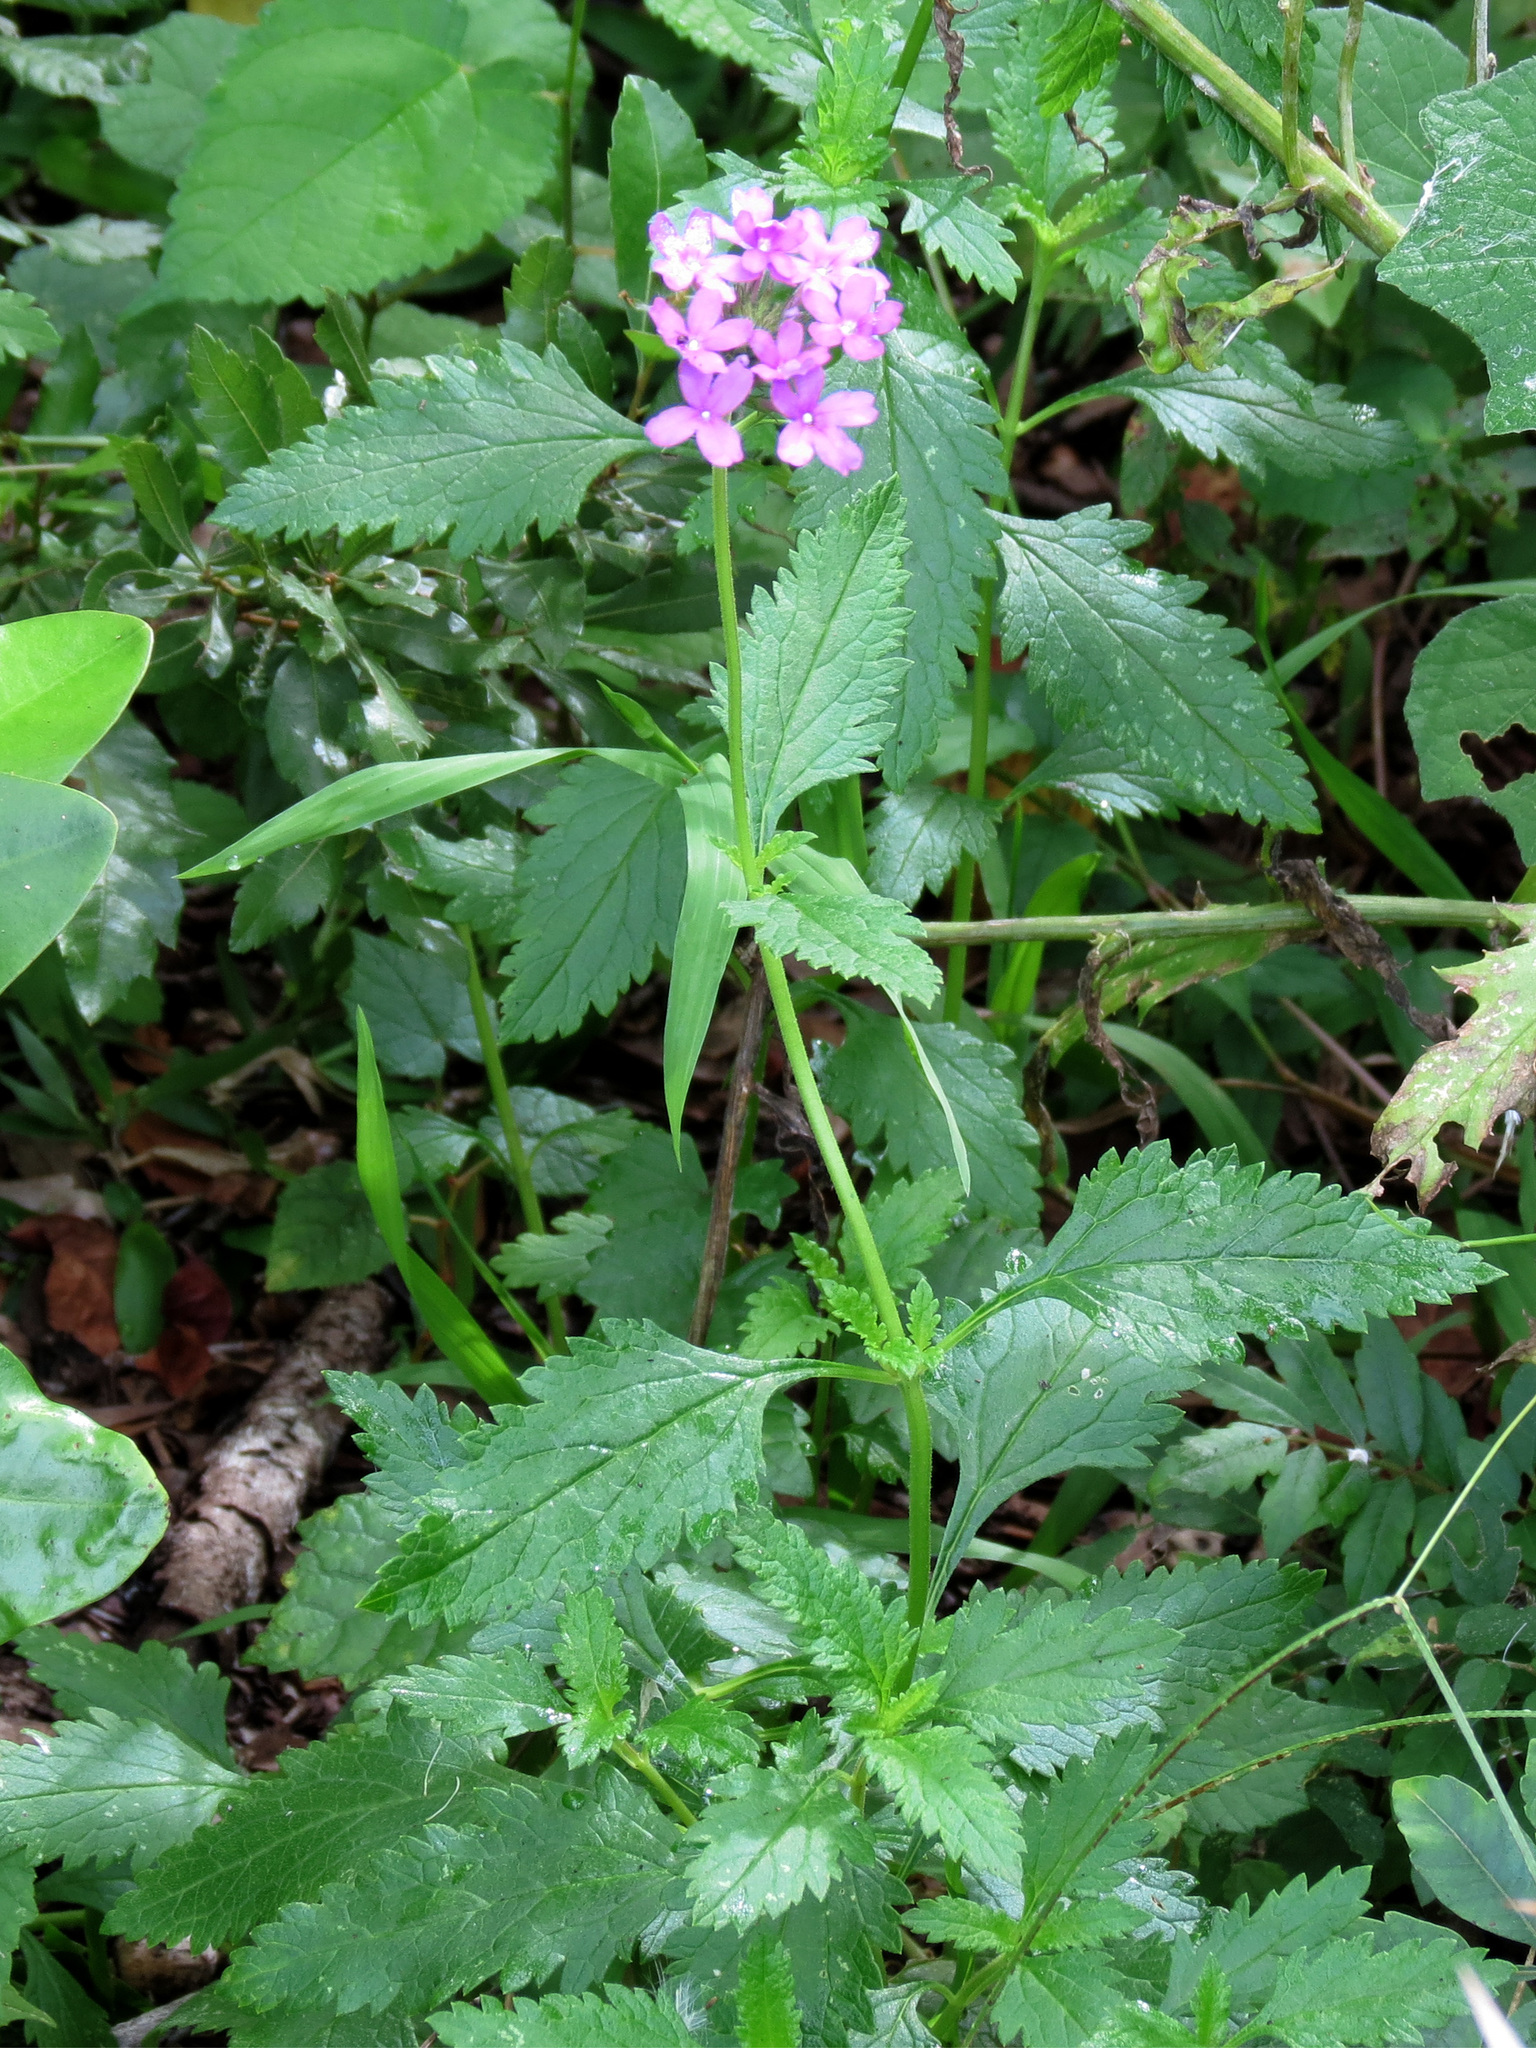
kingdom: Plantae
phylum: Tracheophyta
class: Magnoliopsida
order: Lamiales
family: Verbenaceae
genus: Verbena
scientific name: Verbena maritima
